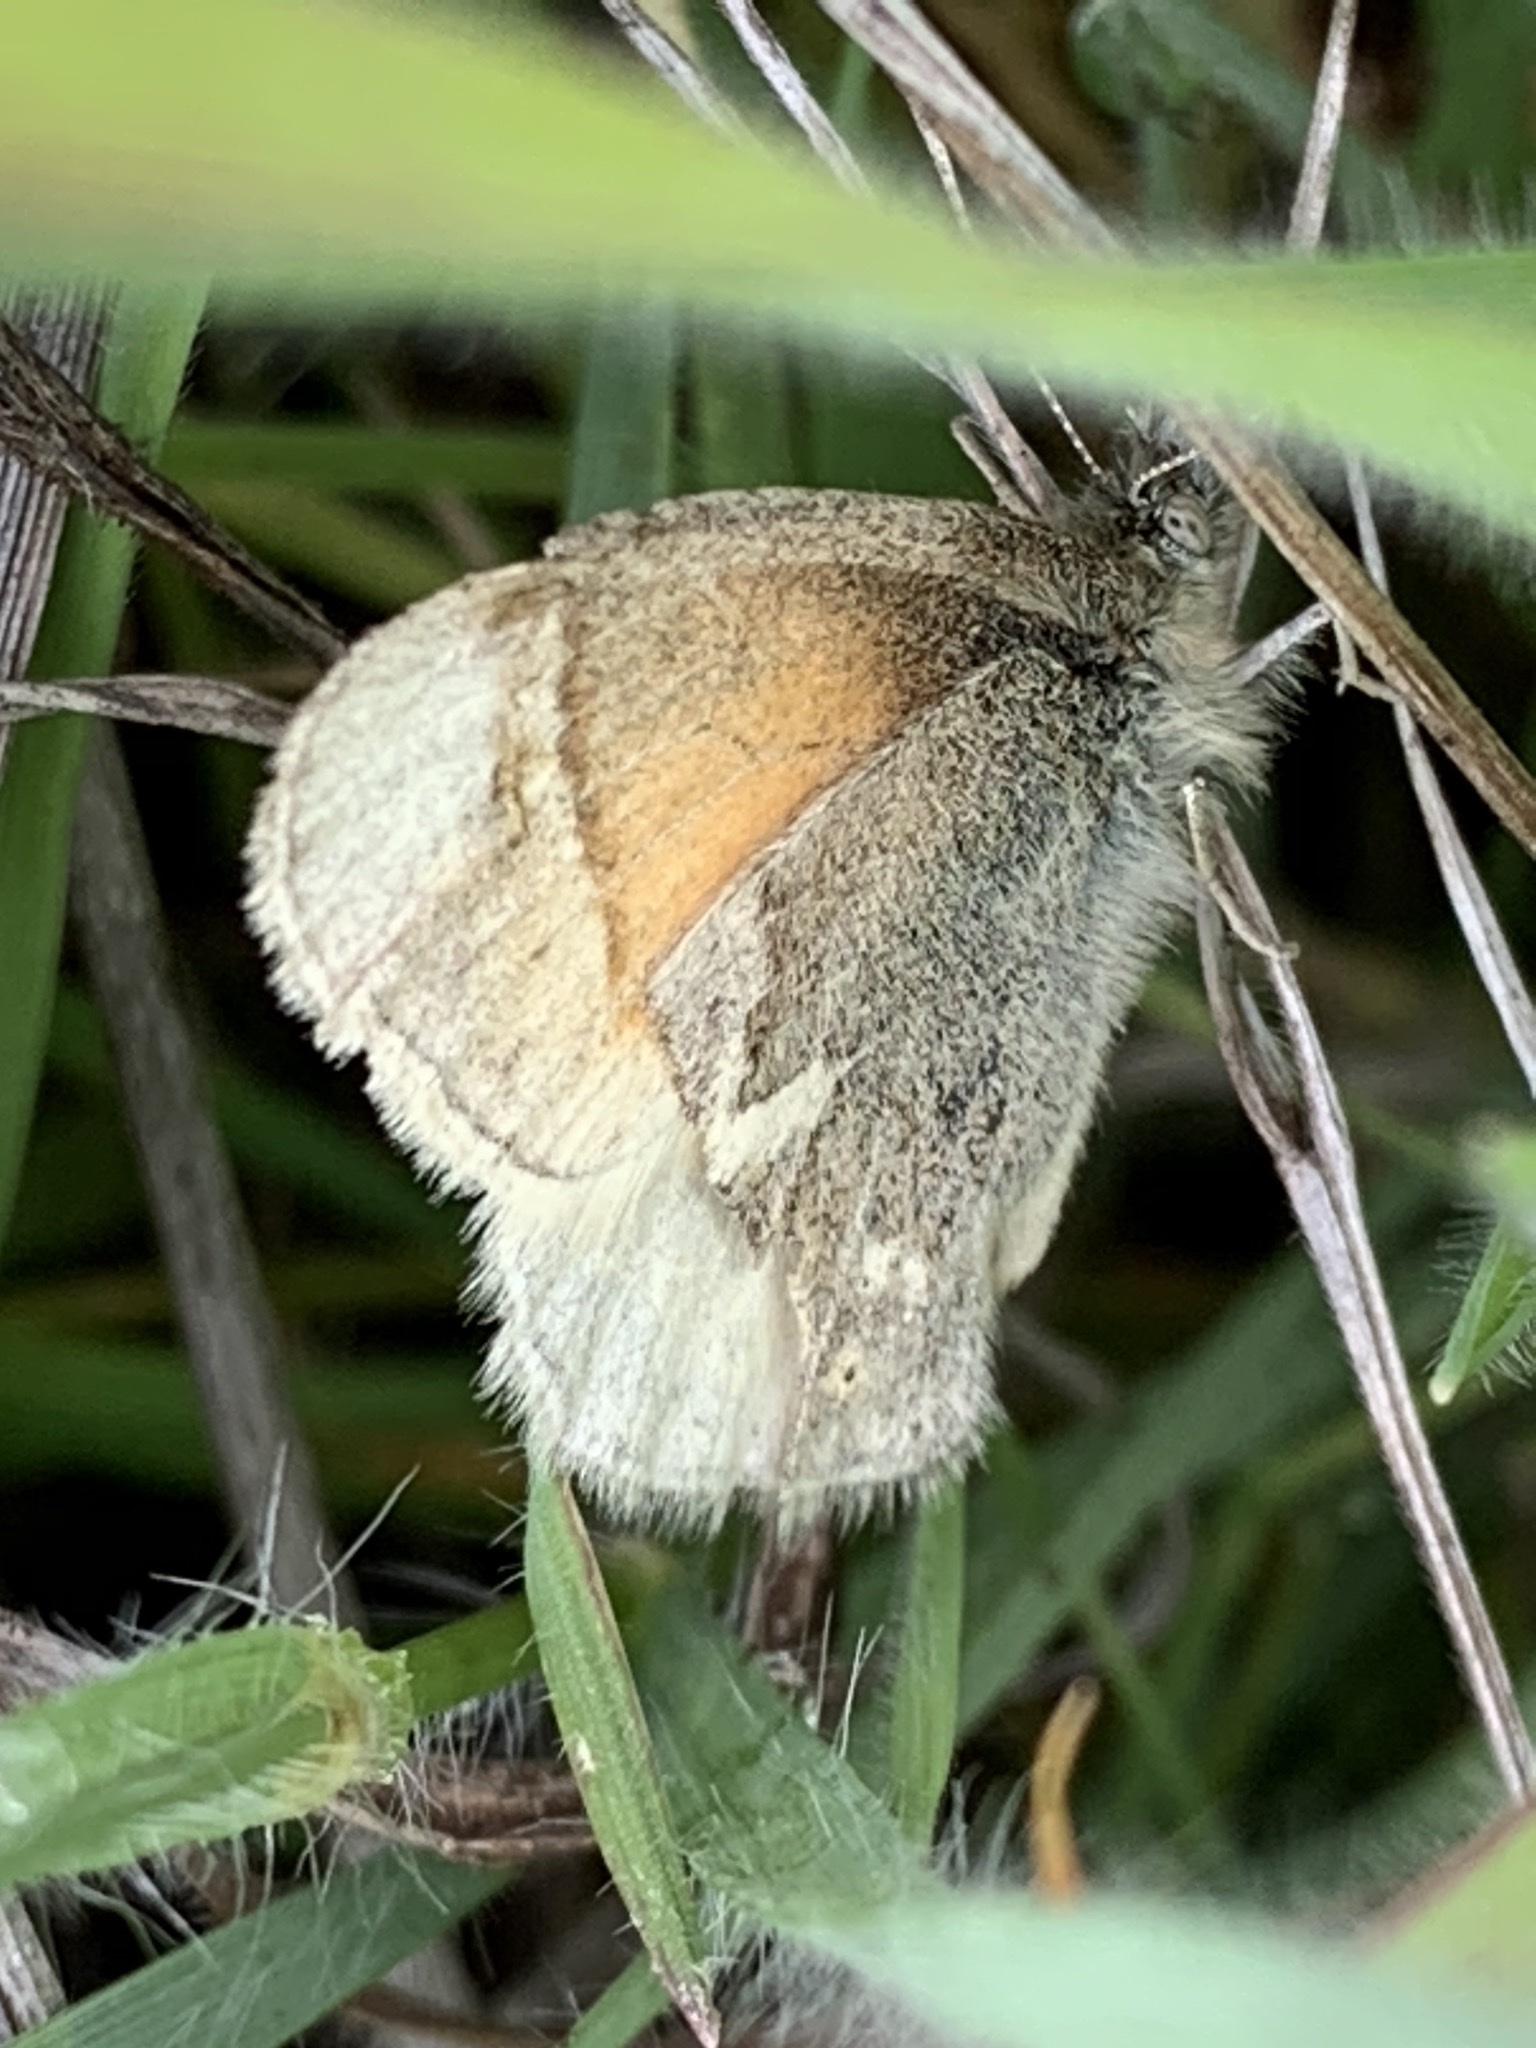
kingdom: Animalia
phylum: Arthropoda
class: Insecta
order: Lepidoptera
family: Nymphalidae
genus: Coenonympha
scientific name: Coenonympha california
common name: Common ringlet
